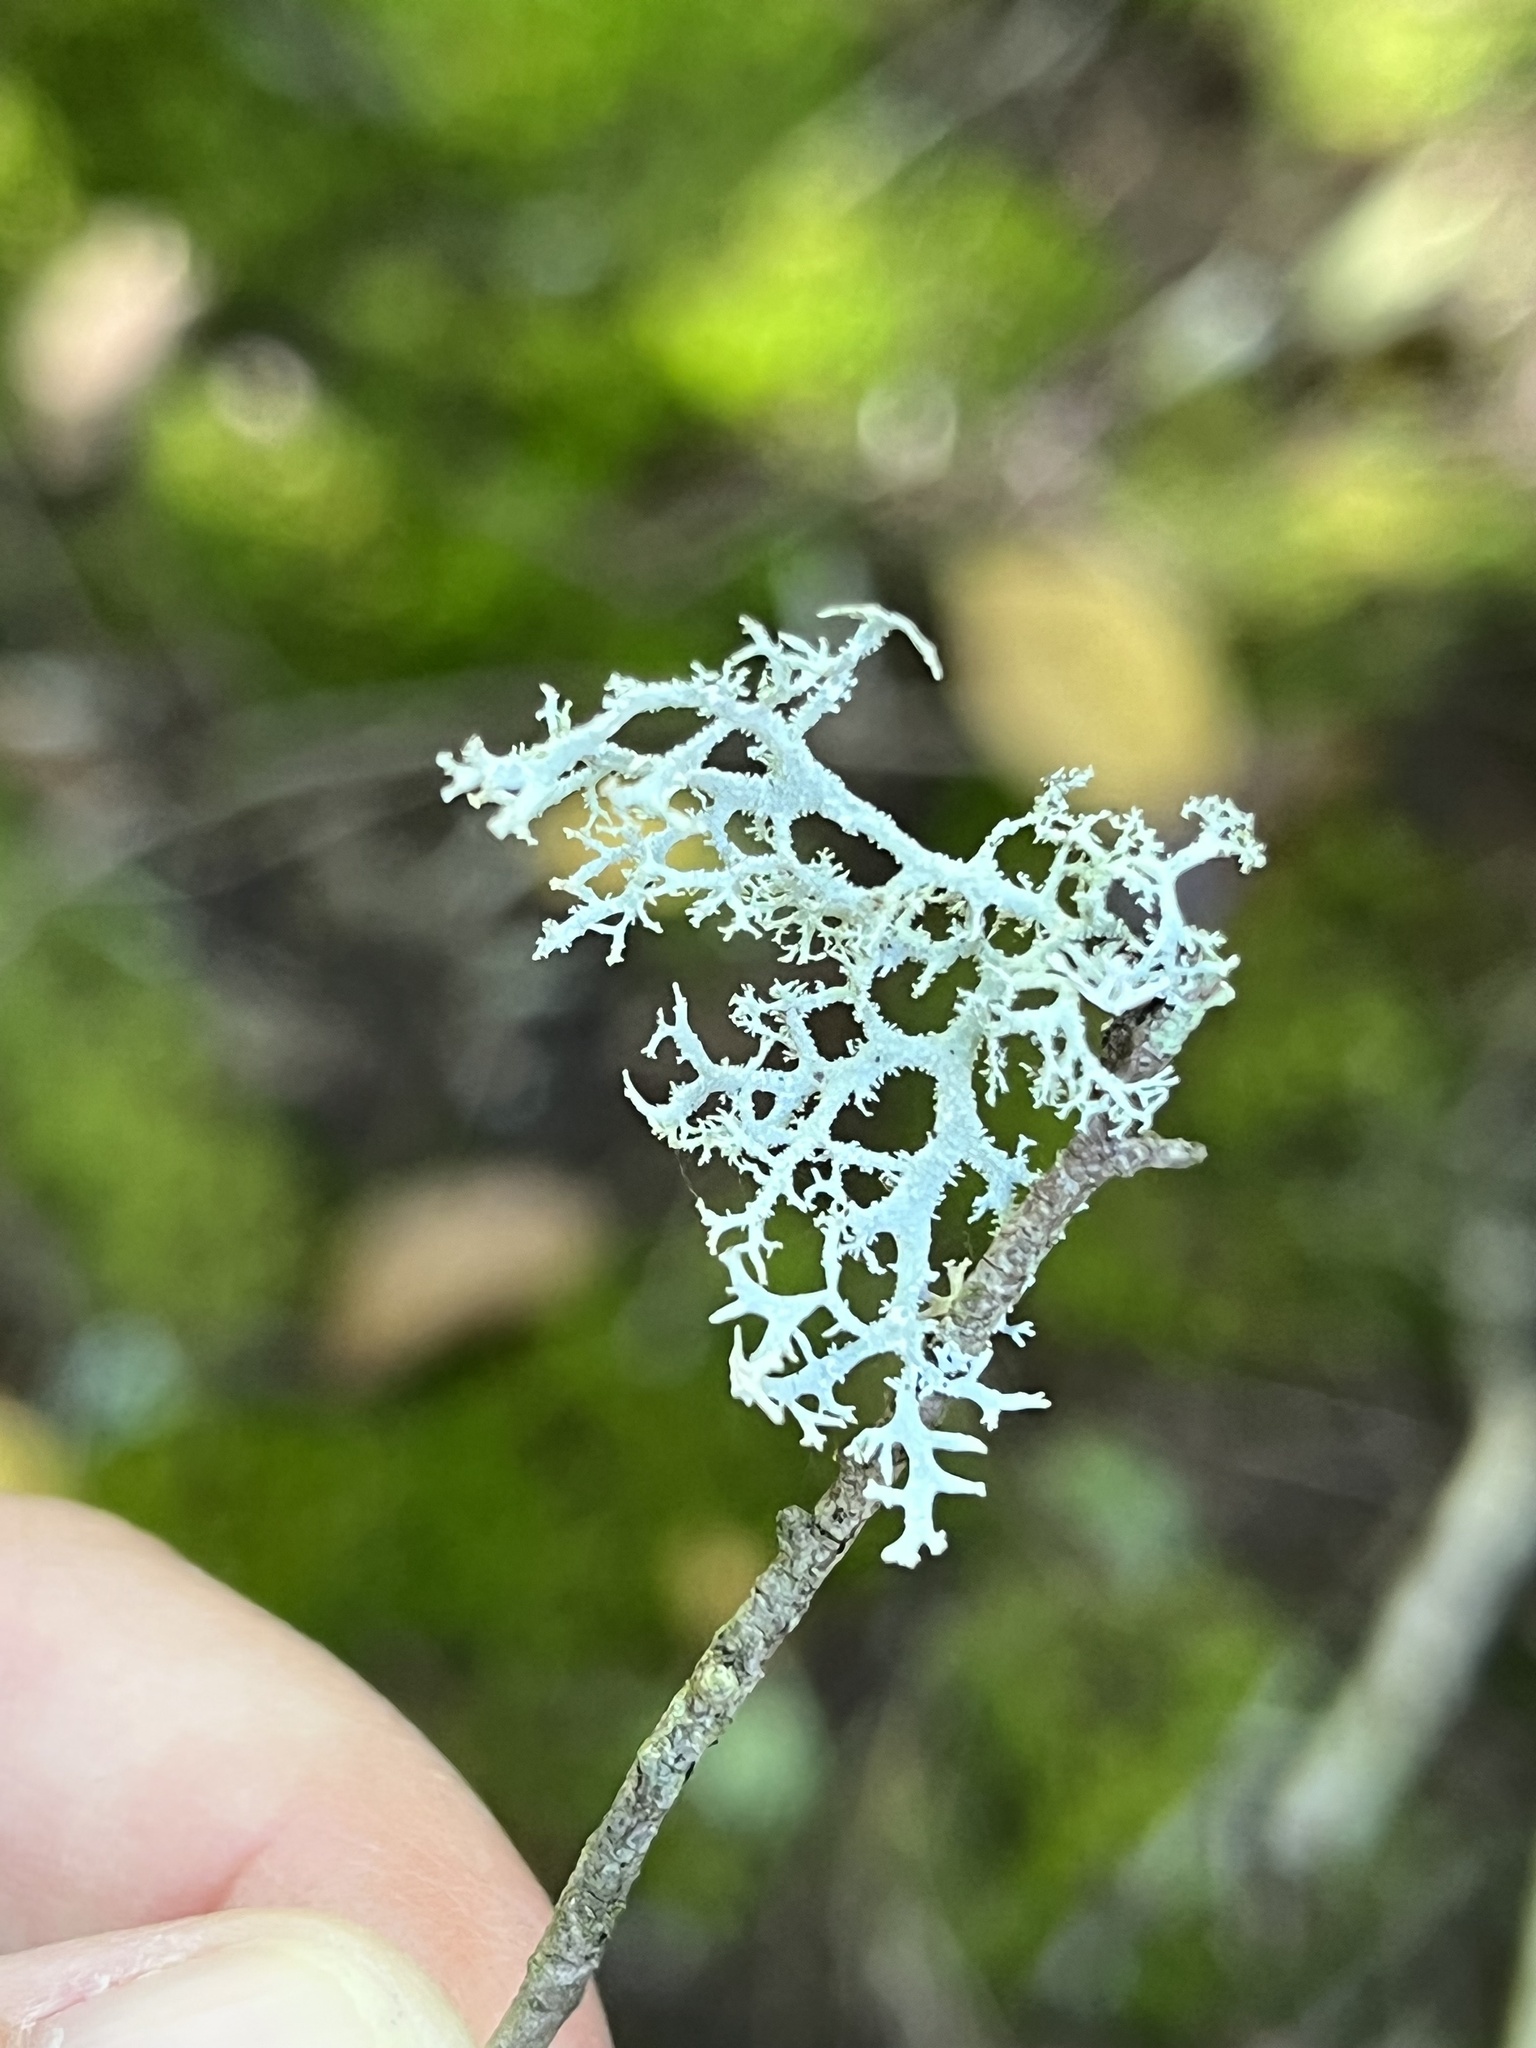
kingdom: Fungi
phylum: Ascomycota
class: Lecanoromycetes
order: Lecanorales
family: Parmeliaceae
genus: Pseudevernia
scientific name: Pseudevernia consocians
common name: Common antler lichen
